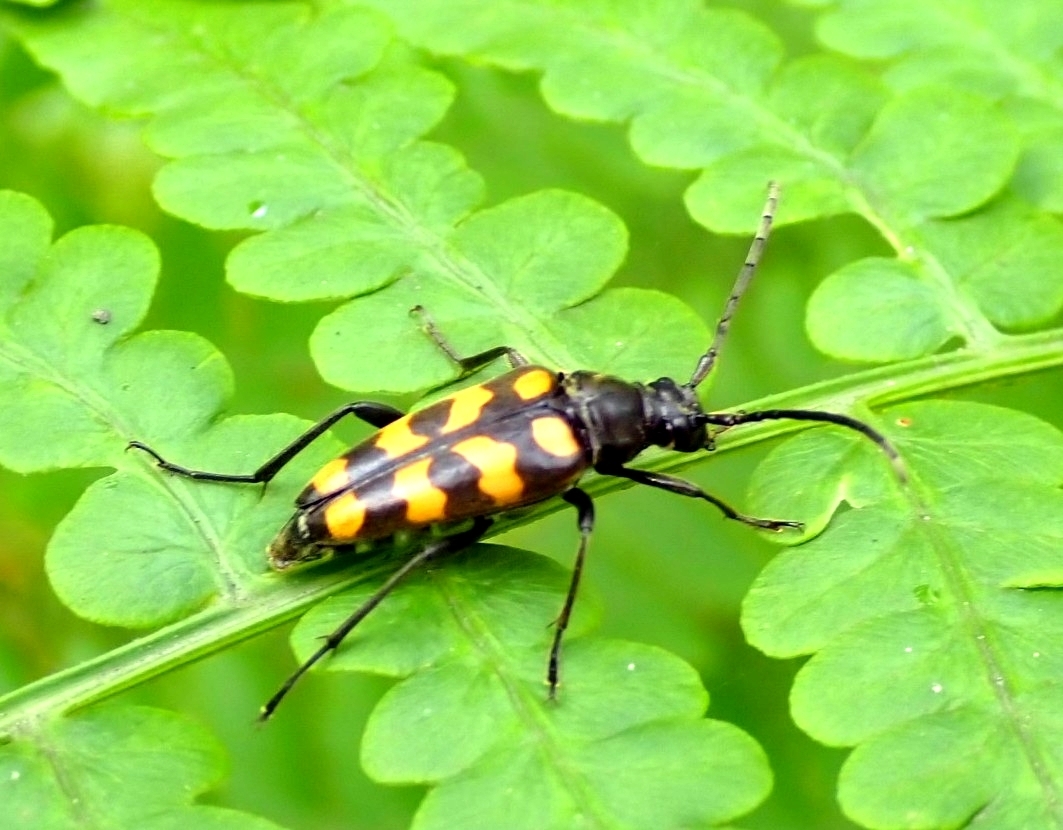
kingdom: Animalia
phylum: Arthropoda
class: Insecta
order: Coleoptera
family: Cerambycidae
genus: Leptura
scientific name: Leptura quadrifasciata
